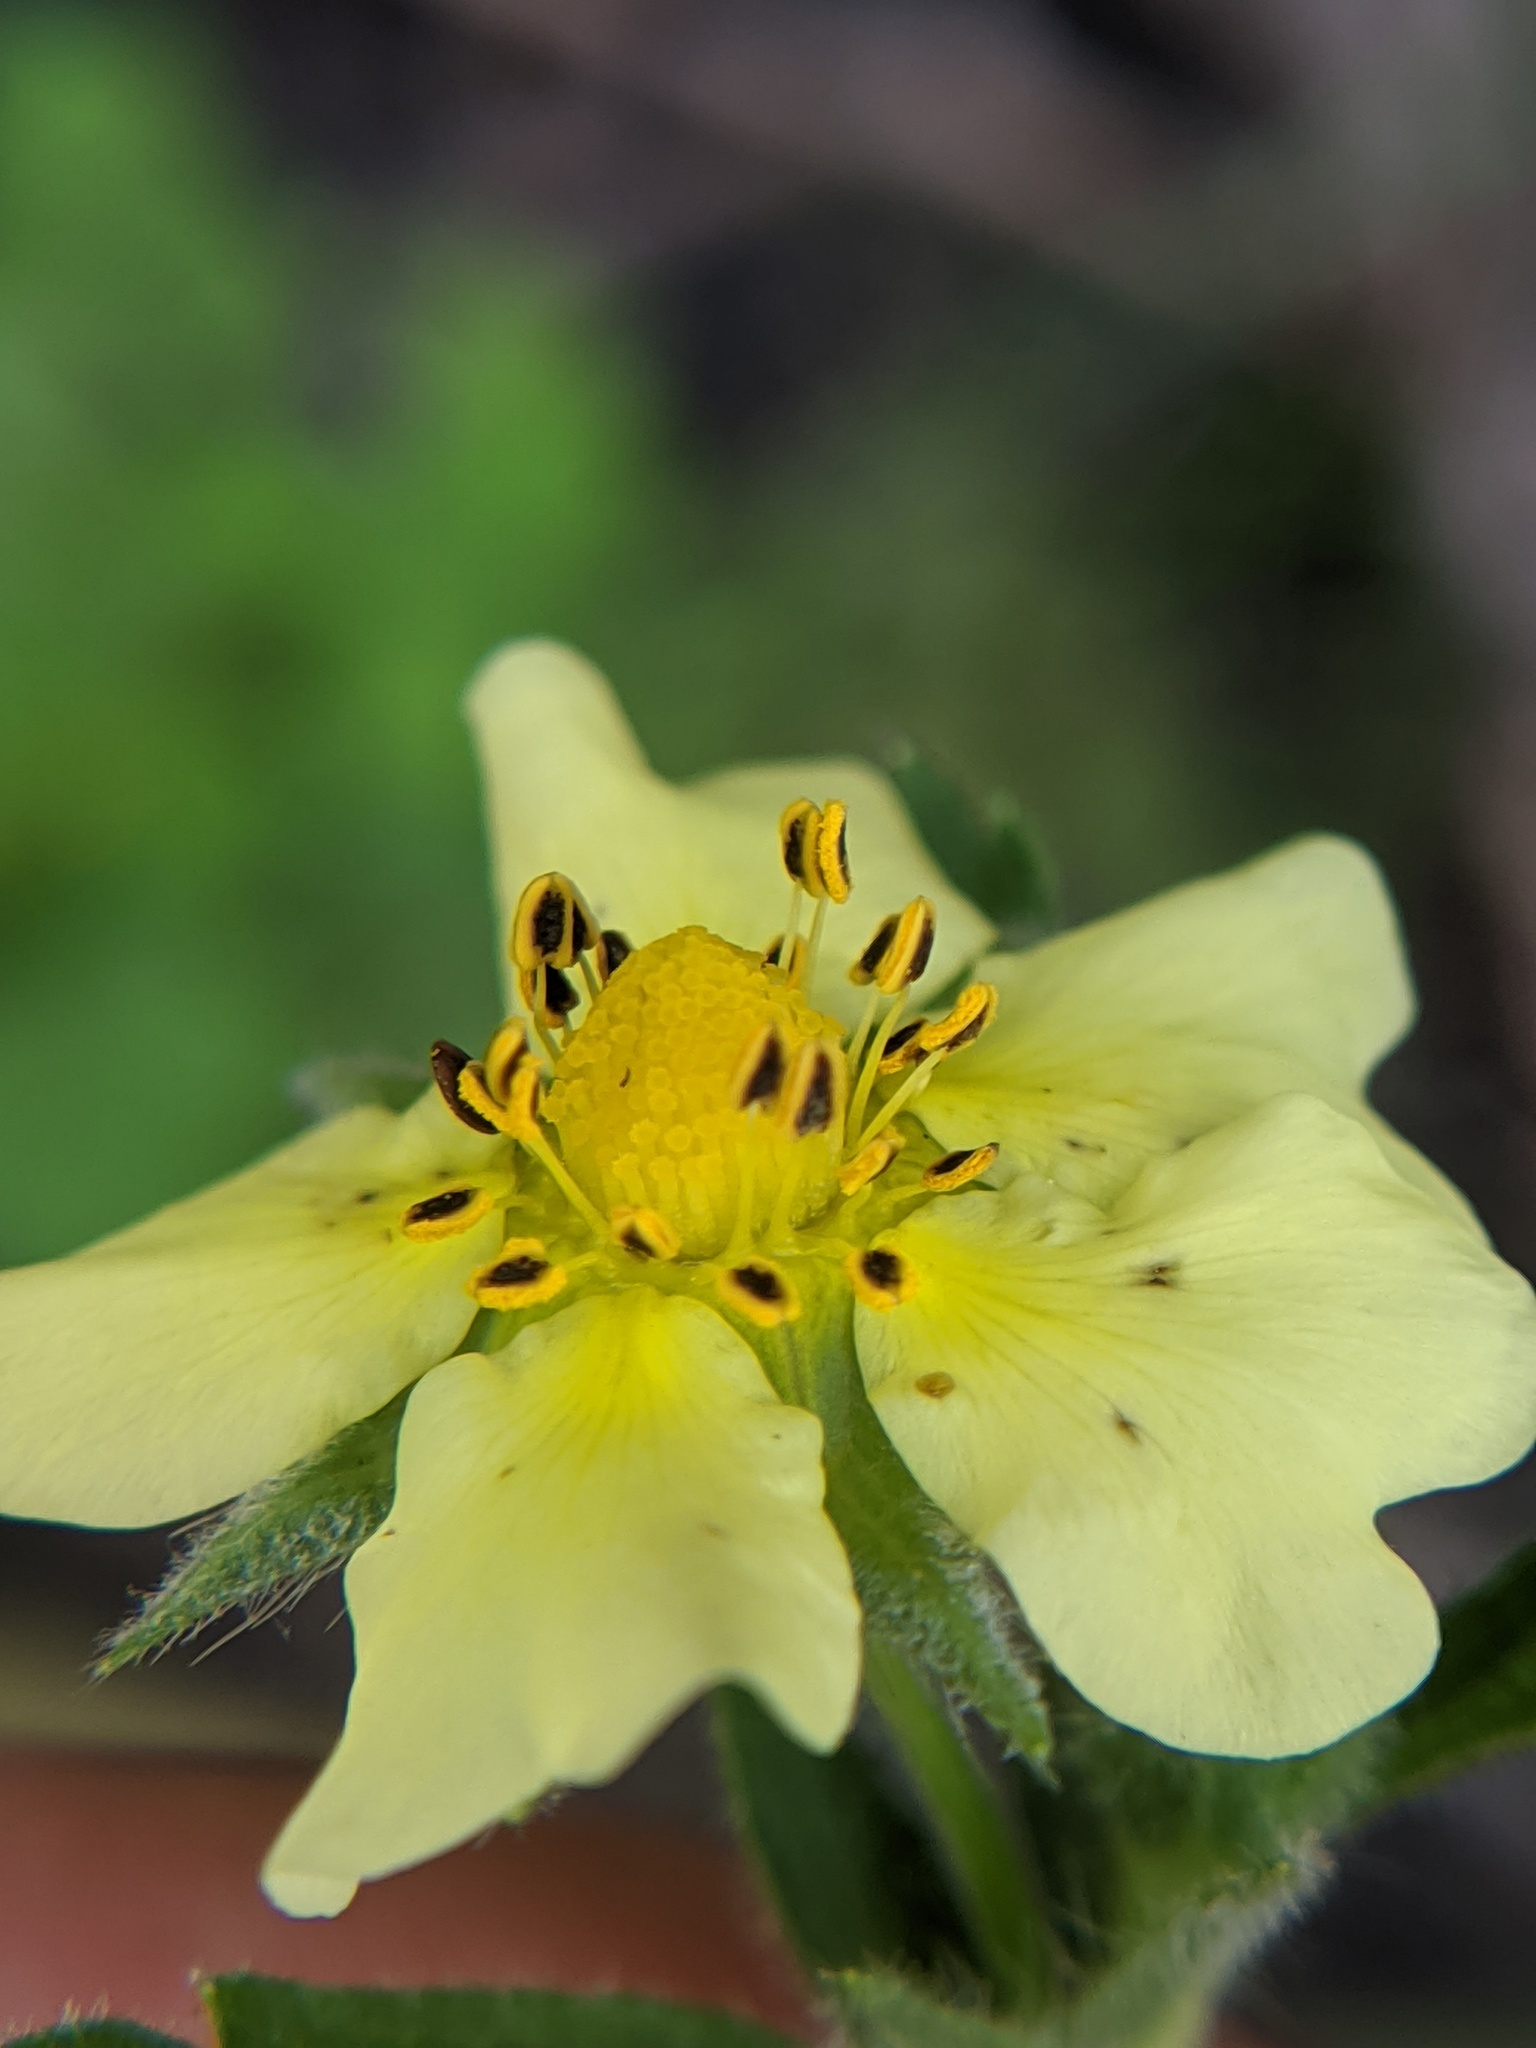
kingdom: Plantae
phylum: Tracheophyta
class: Magnoliopsida
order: Rosales
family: Rosaceae
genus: Potentilla
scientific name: Potentilla recta
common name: Sulphur cinquefoil
